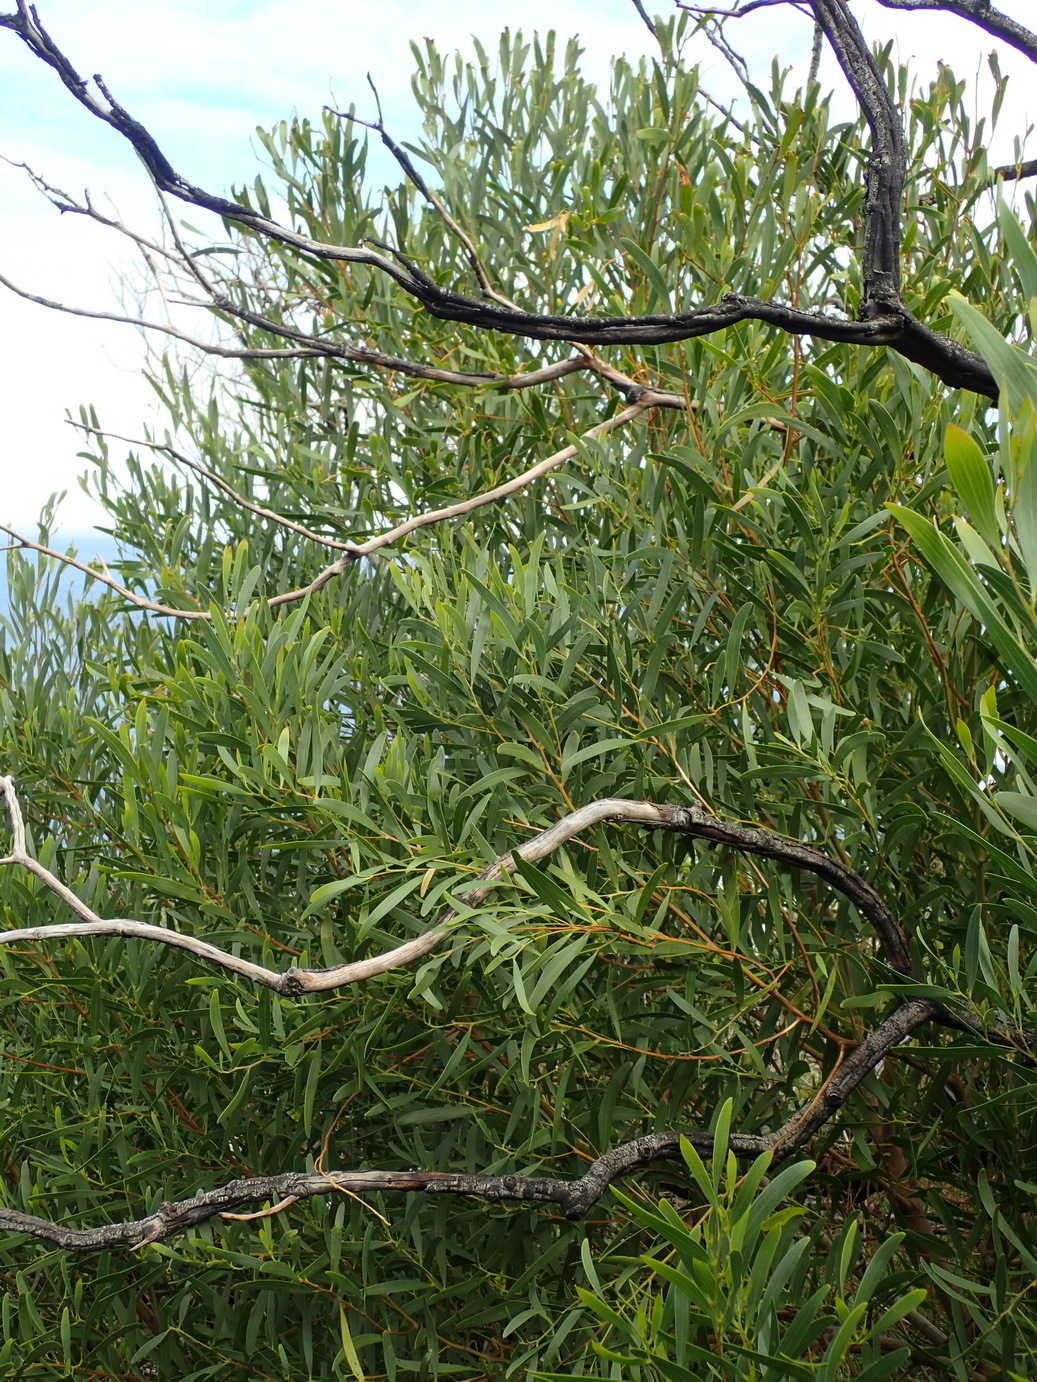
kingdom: Plantae
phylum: Tracheophyta
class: Magnoliopsida
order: Fabales
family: Fabaceae
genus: Acacia
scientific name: Acacia cyclops
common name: Coastal wattle
